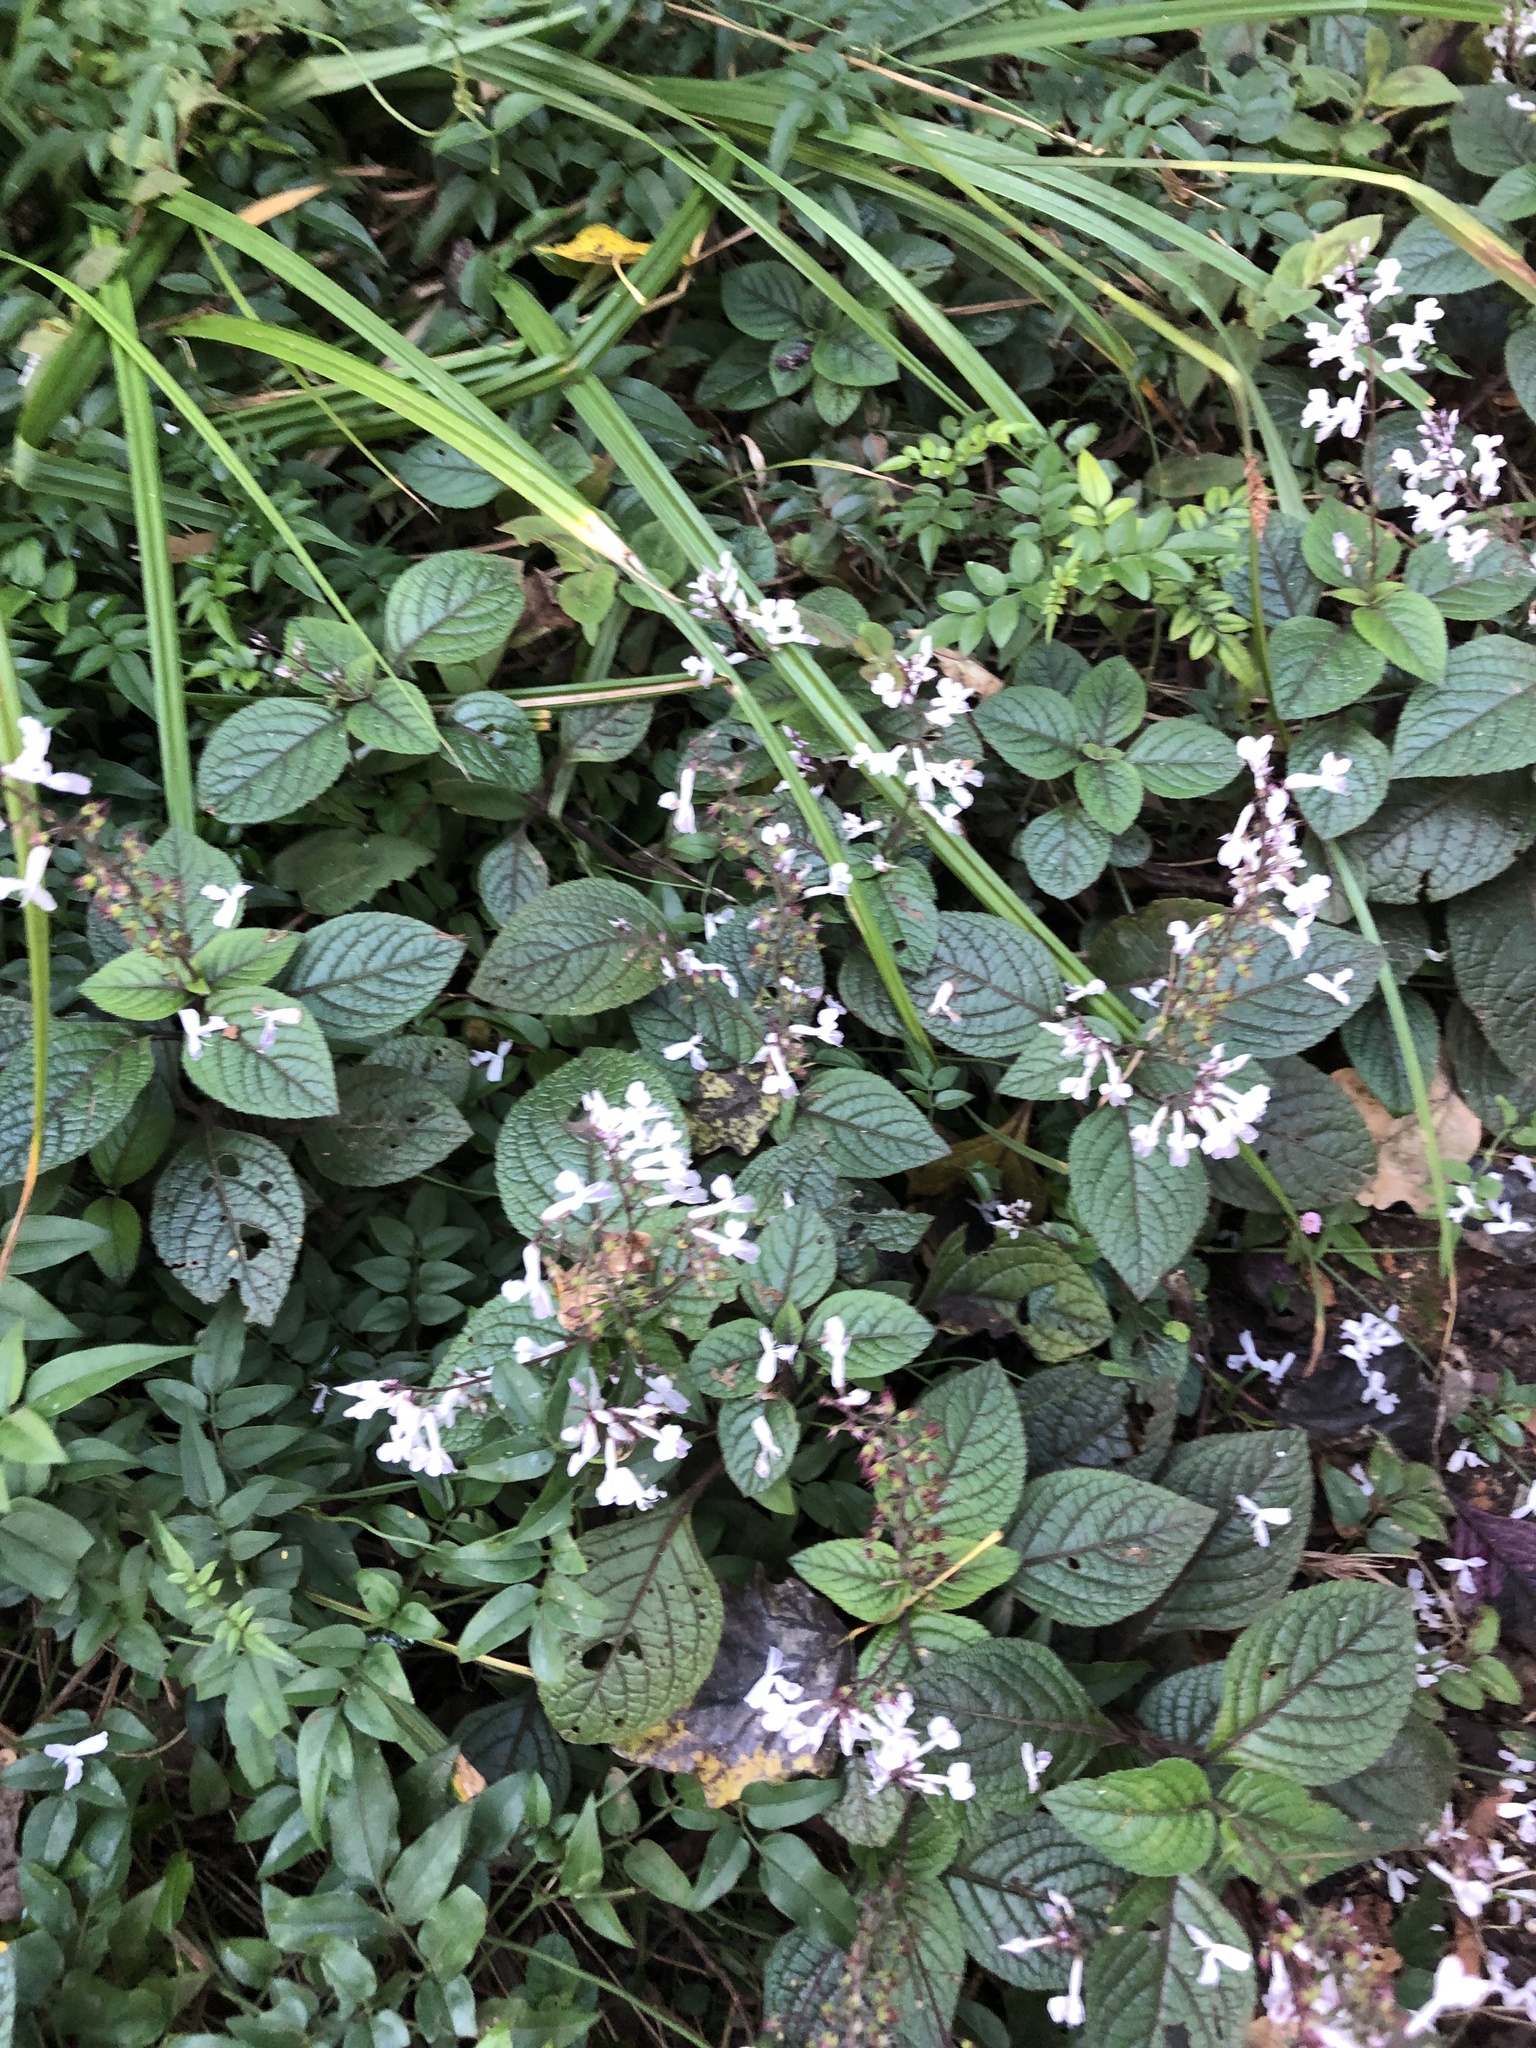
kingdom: Plantae
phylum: Tracheophyta
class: Magnoliopsida
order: Lamiales
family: Lamiaceae
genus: Plectranthus
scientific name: Plectranthus ciliatus
